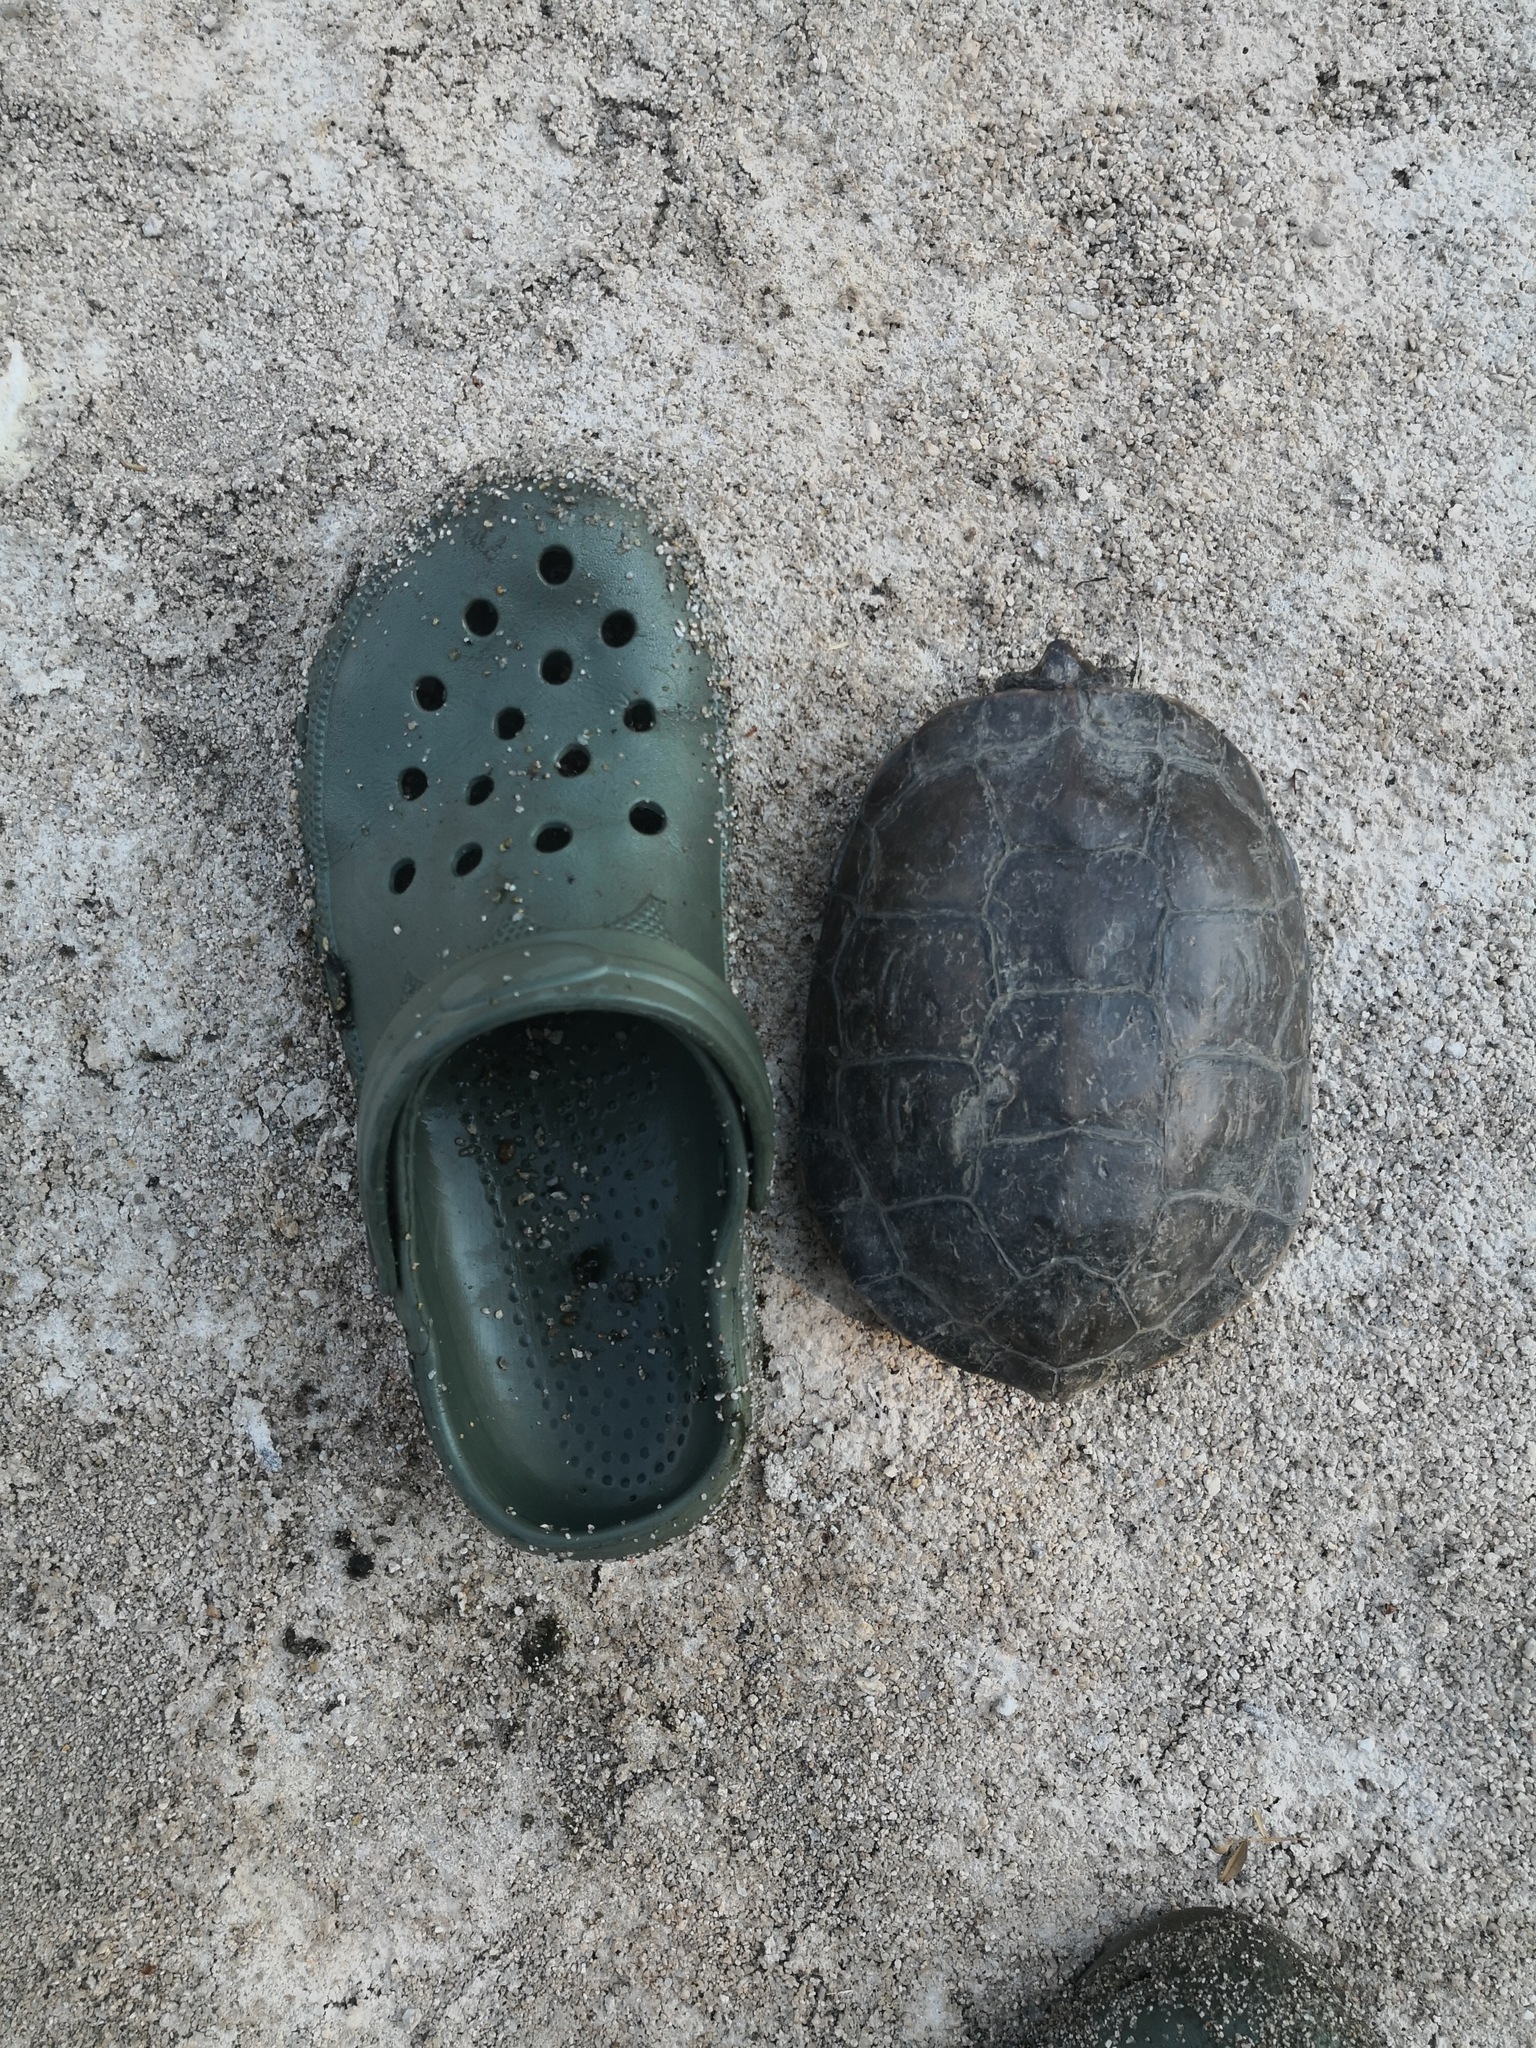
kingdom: Animalia
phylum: Chordata
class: Testudines
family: Geoemydidae
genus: Mauremys
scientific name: Mauremys leprosa
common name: Mediterranean pond turtle
